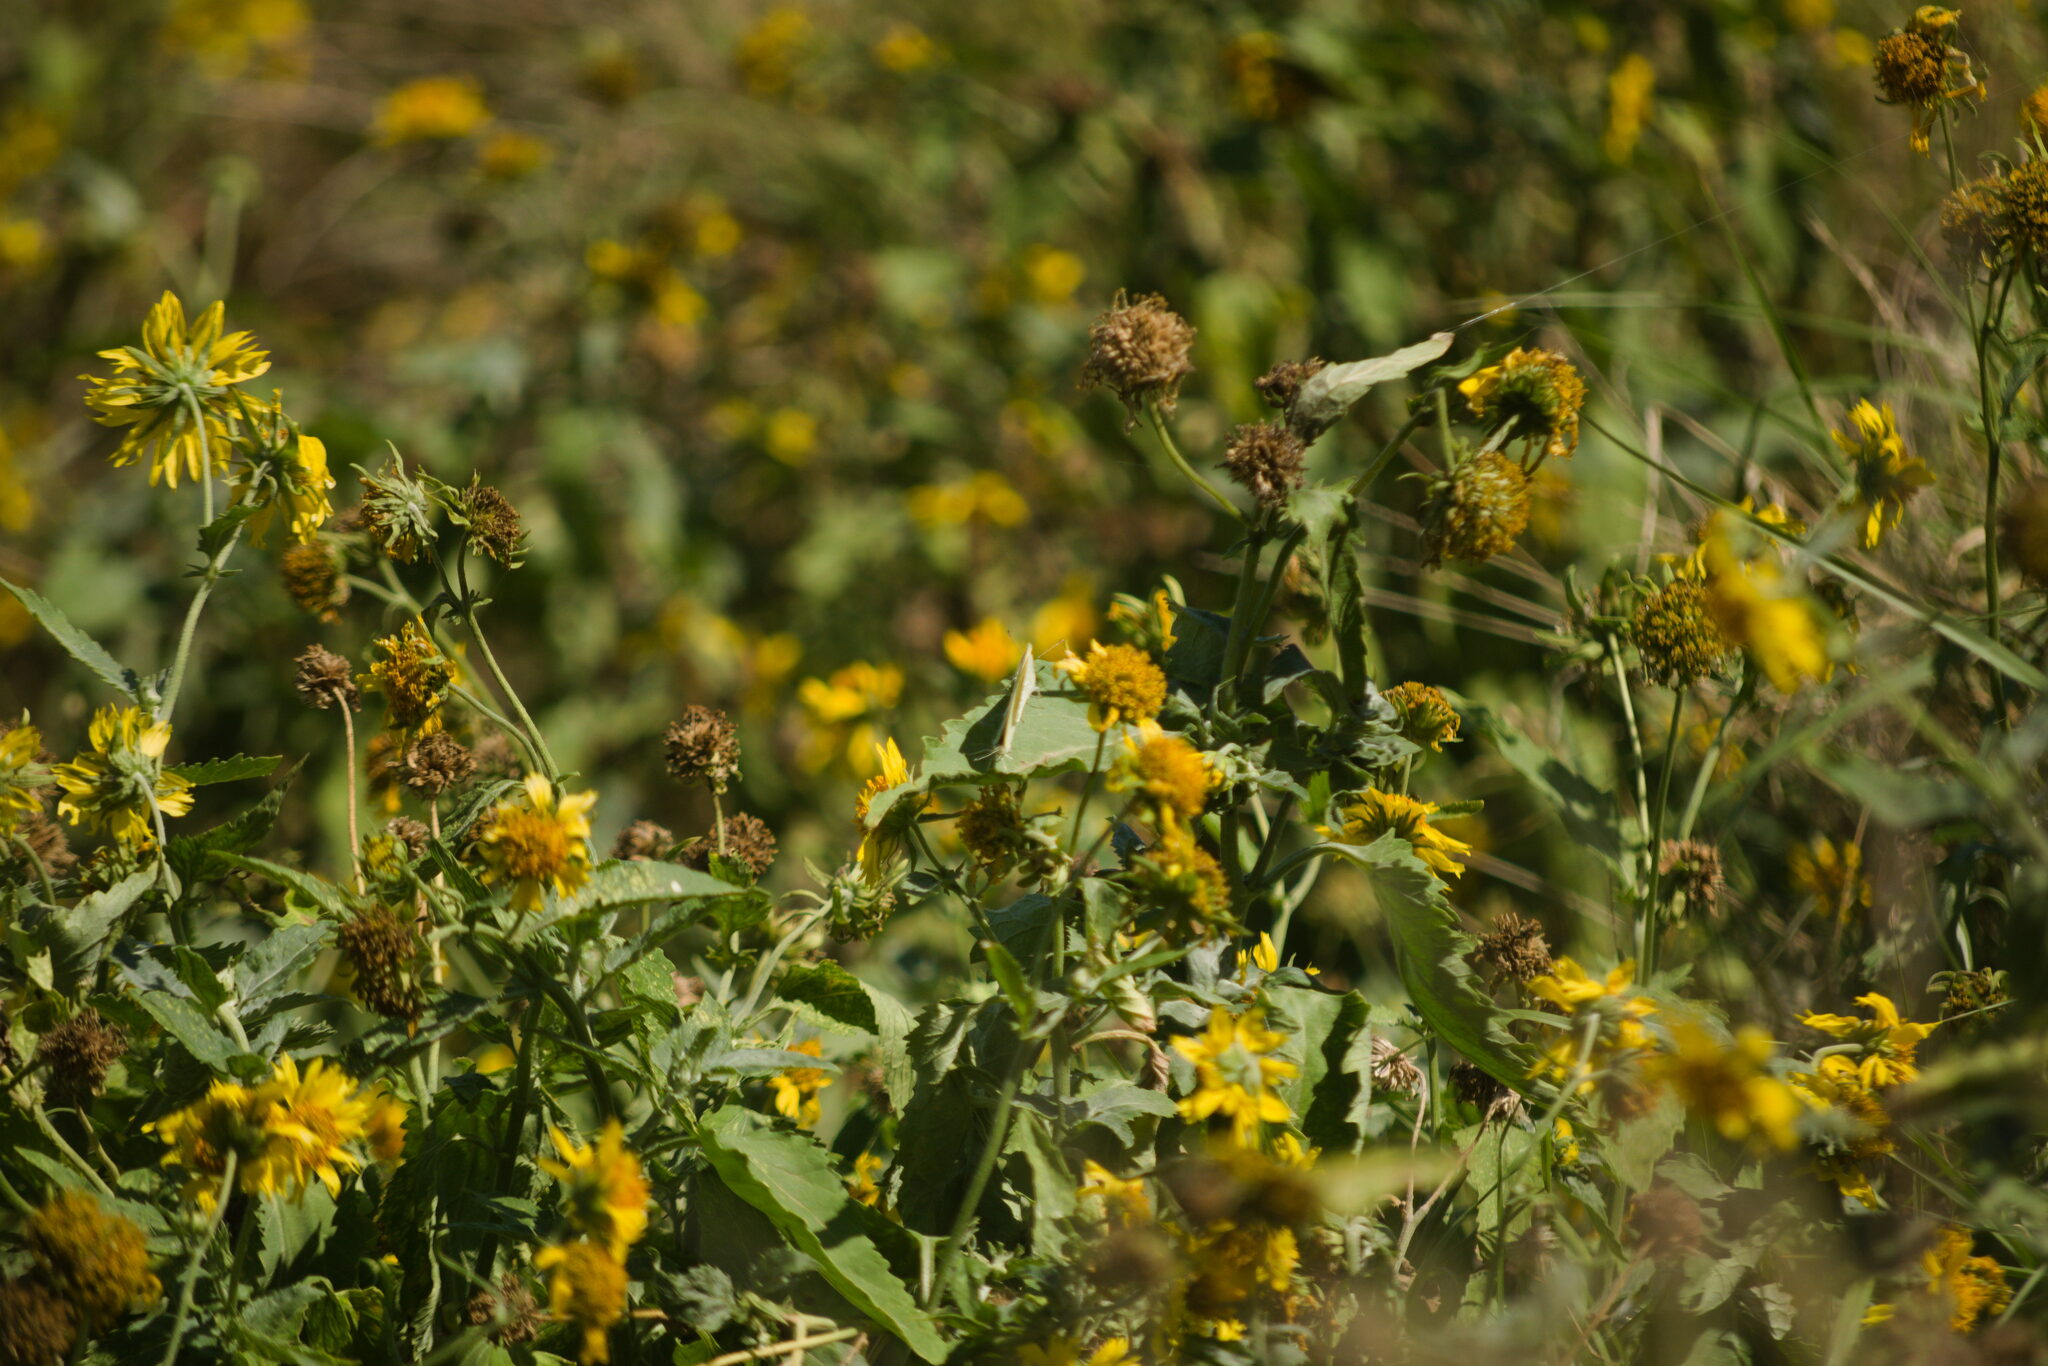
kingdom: Animalia
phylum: Arthropoda
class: Insecta
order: Lepidoptera
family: Pieridae
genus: Pieris
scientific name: Pieris rapae
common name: Small white
